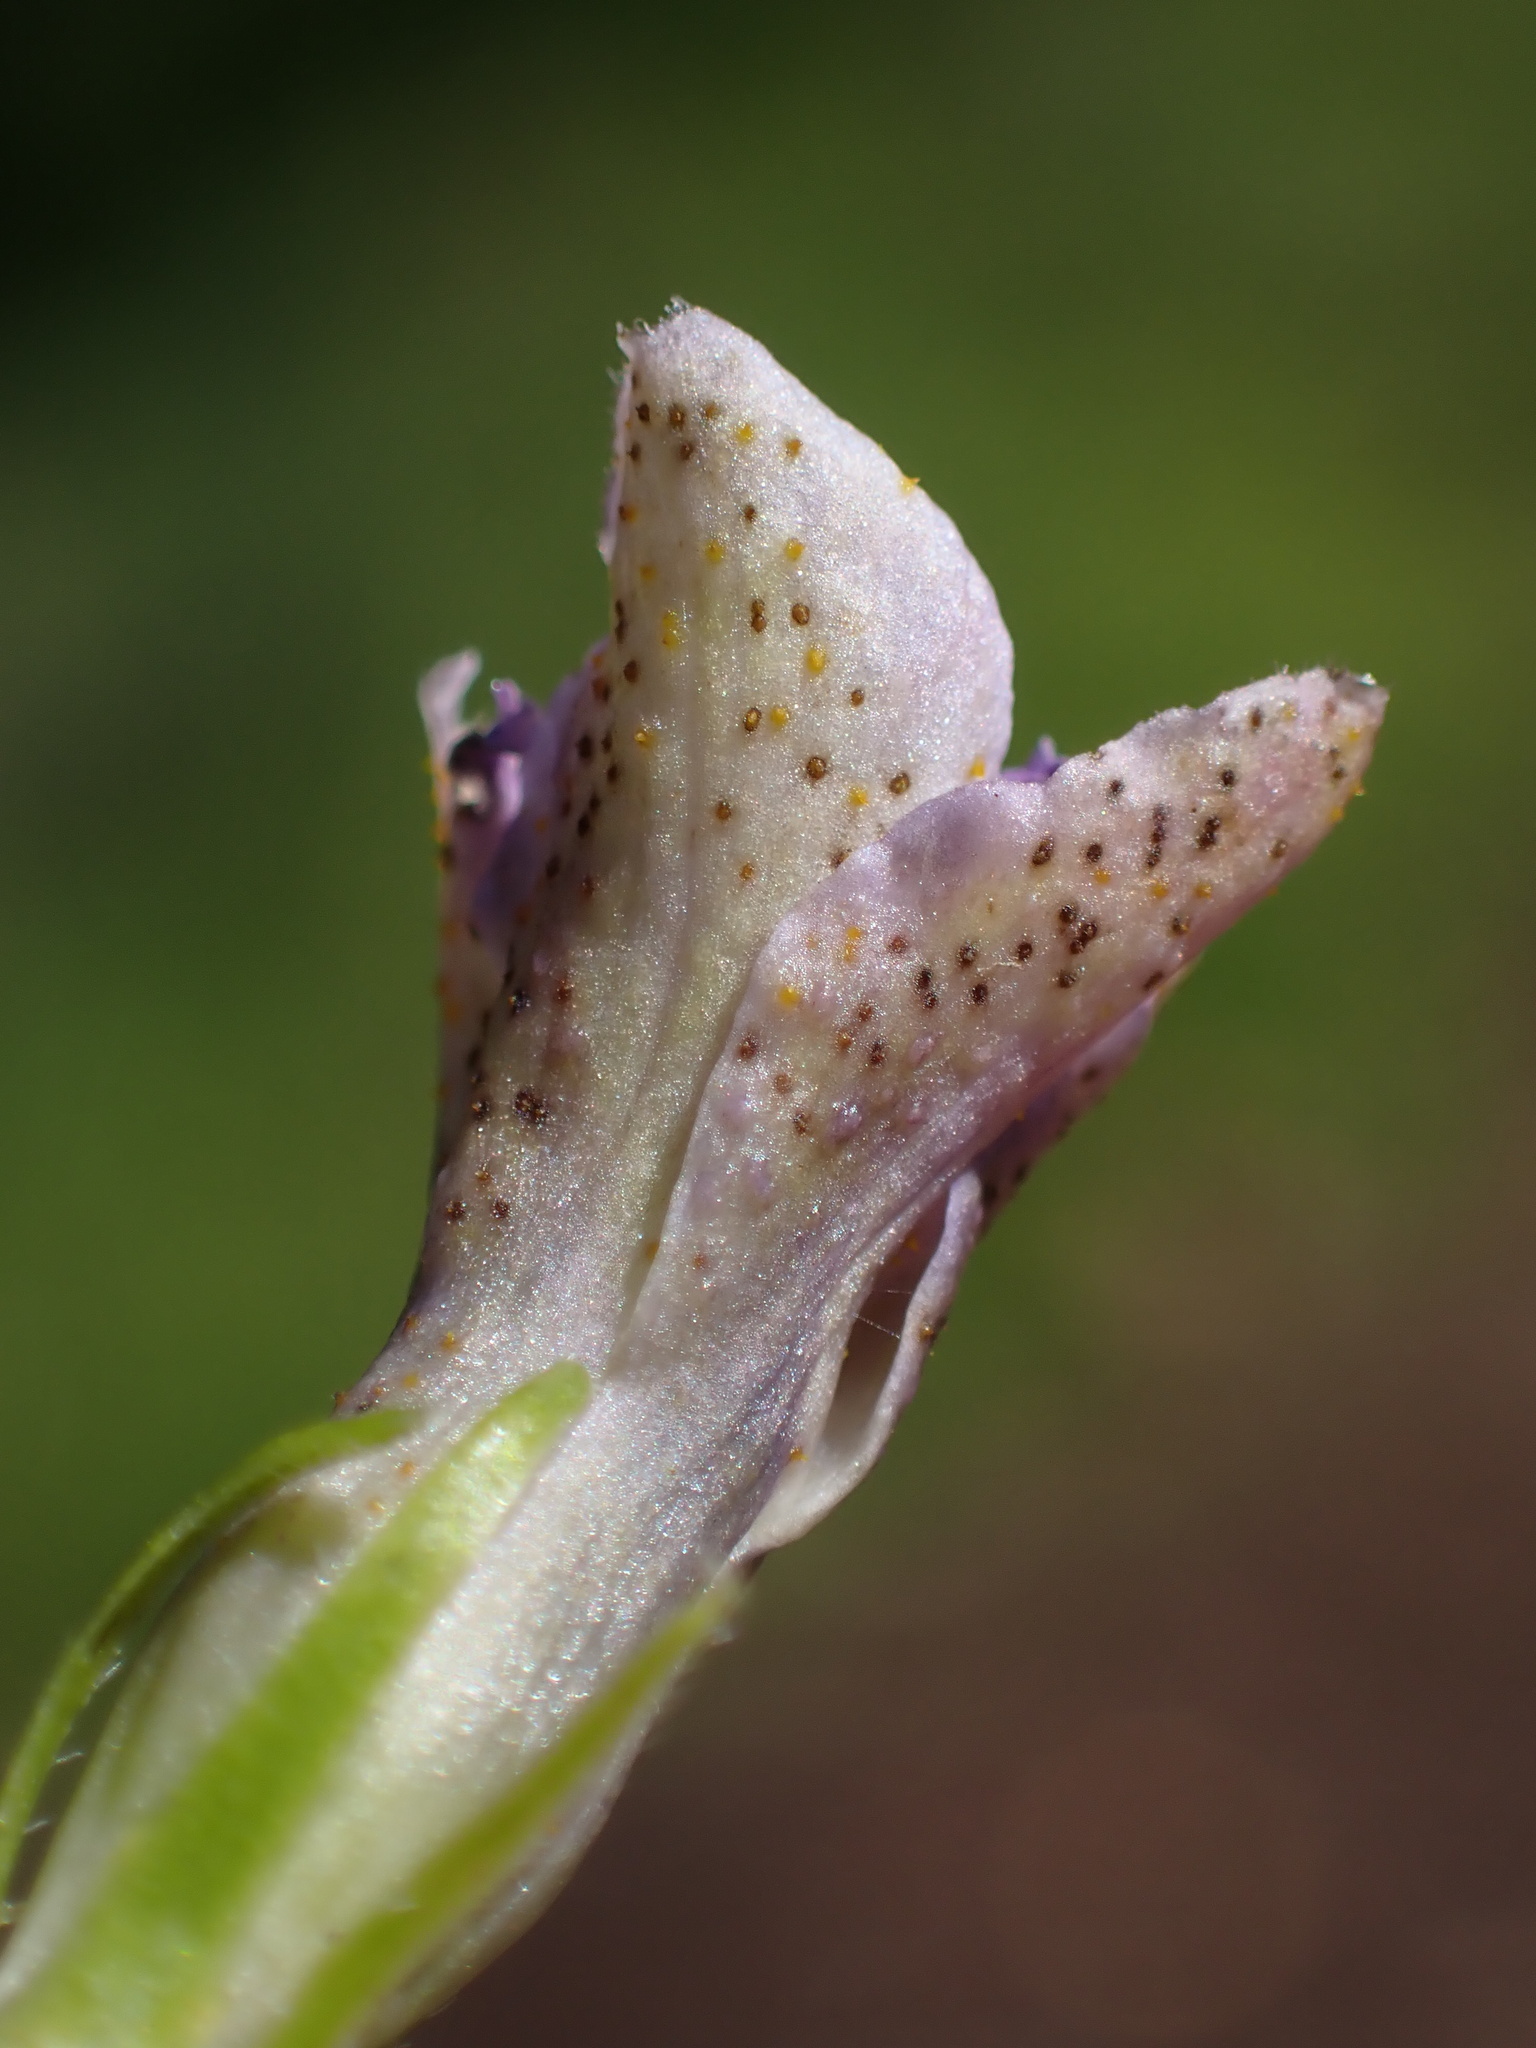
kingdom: Fungi
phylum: Basidiomycota
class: Pucciniomycetes
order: Pucciniales
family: Pucciniaceae
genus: Puccinia
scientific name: Puccinia vincae
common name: Periwinkle rust
